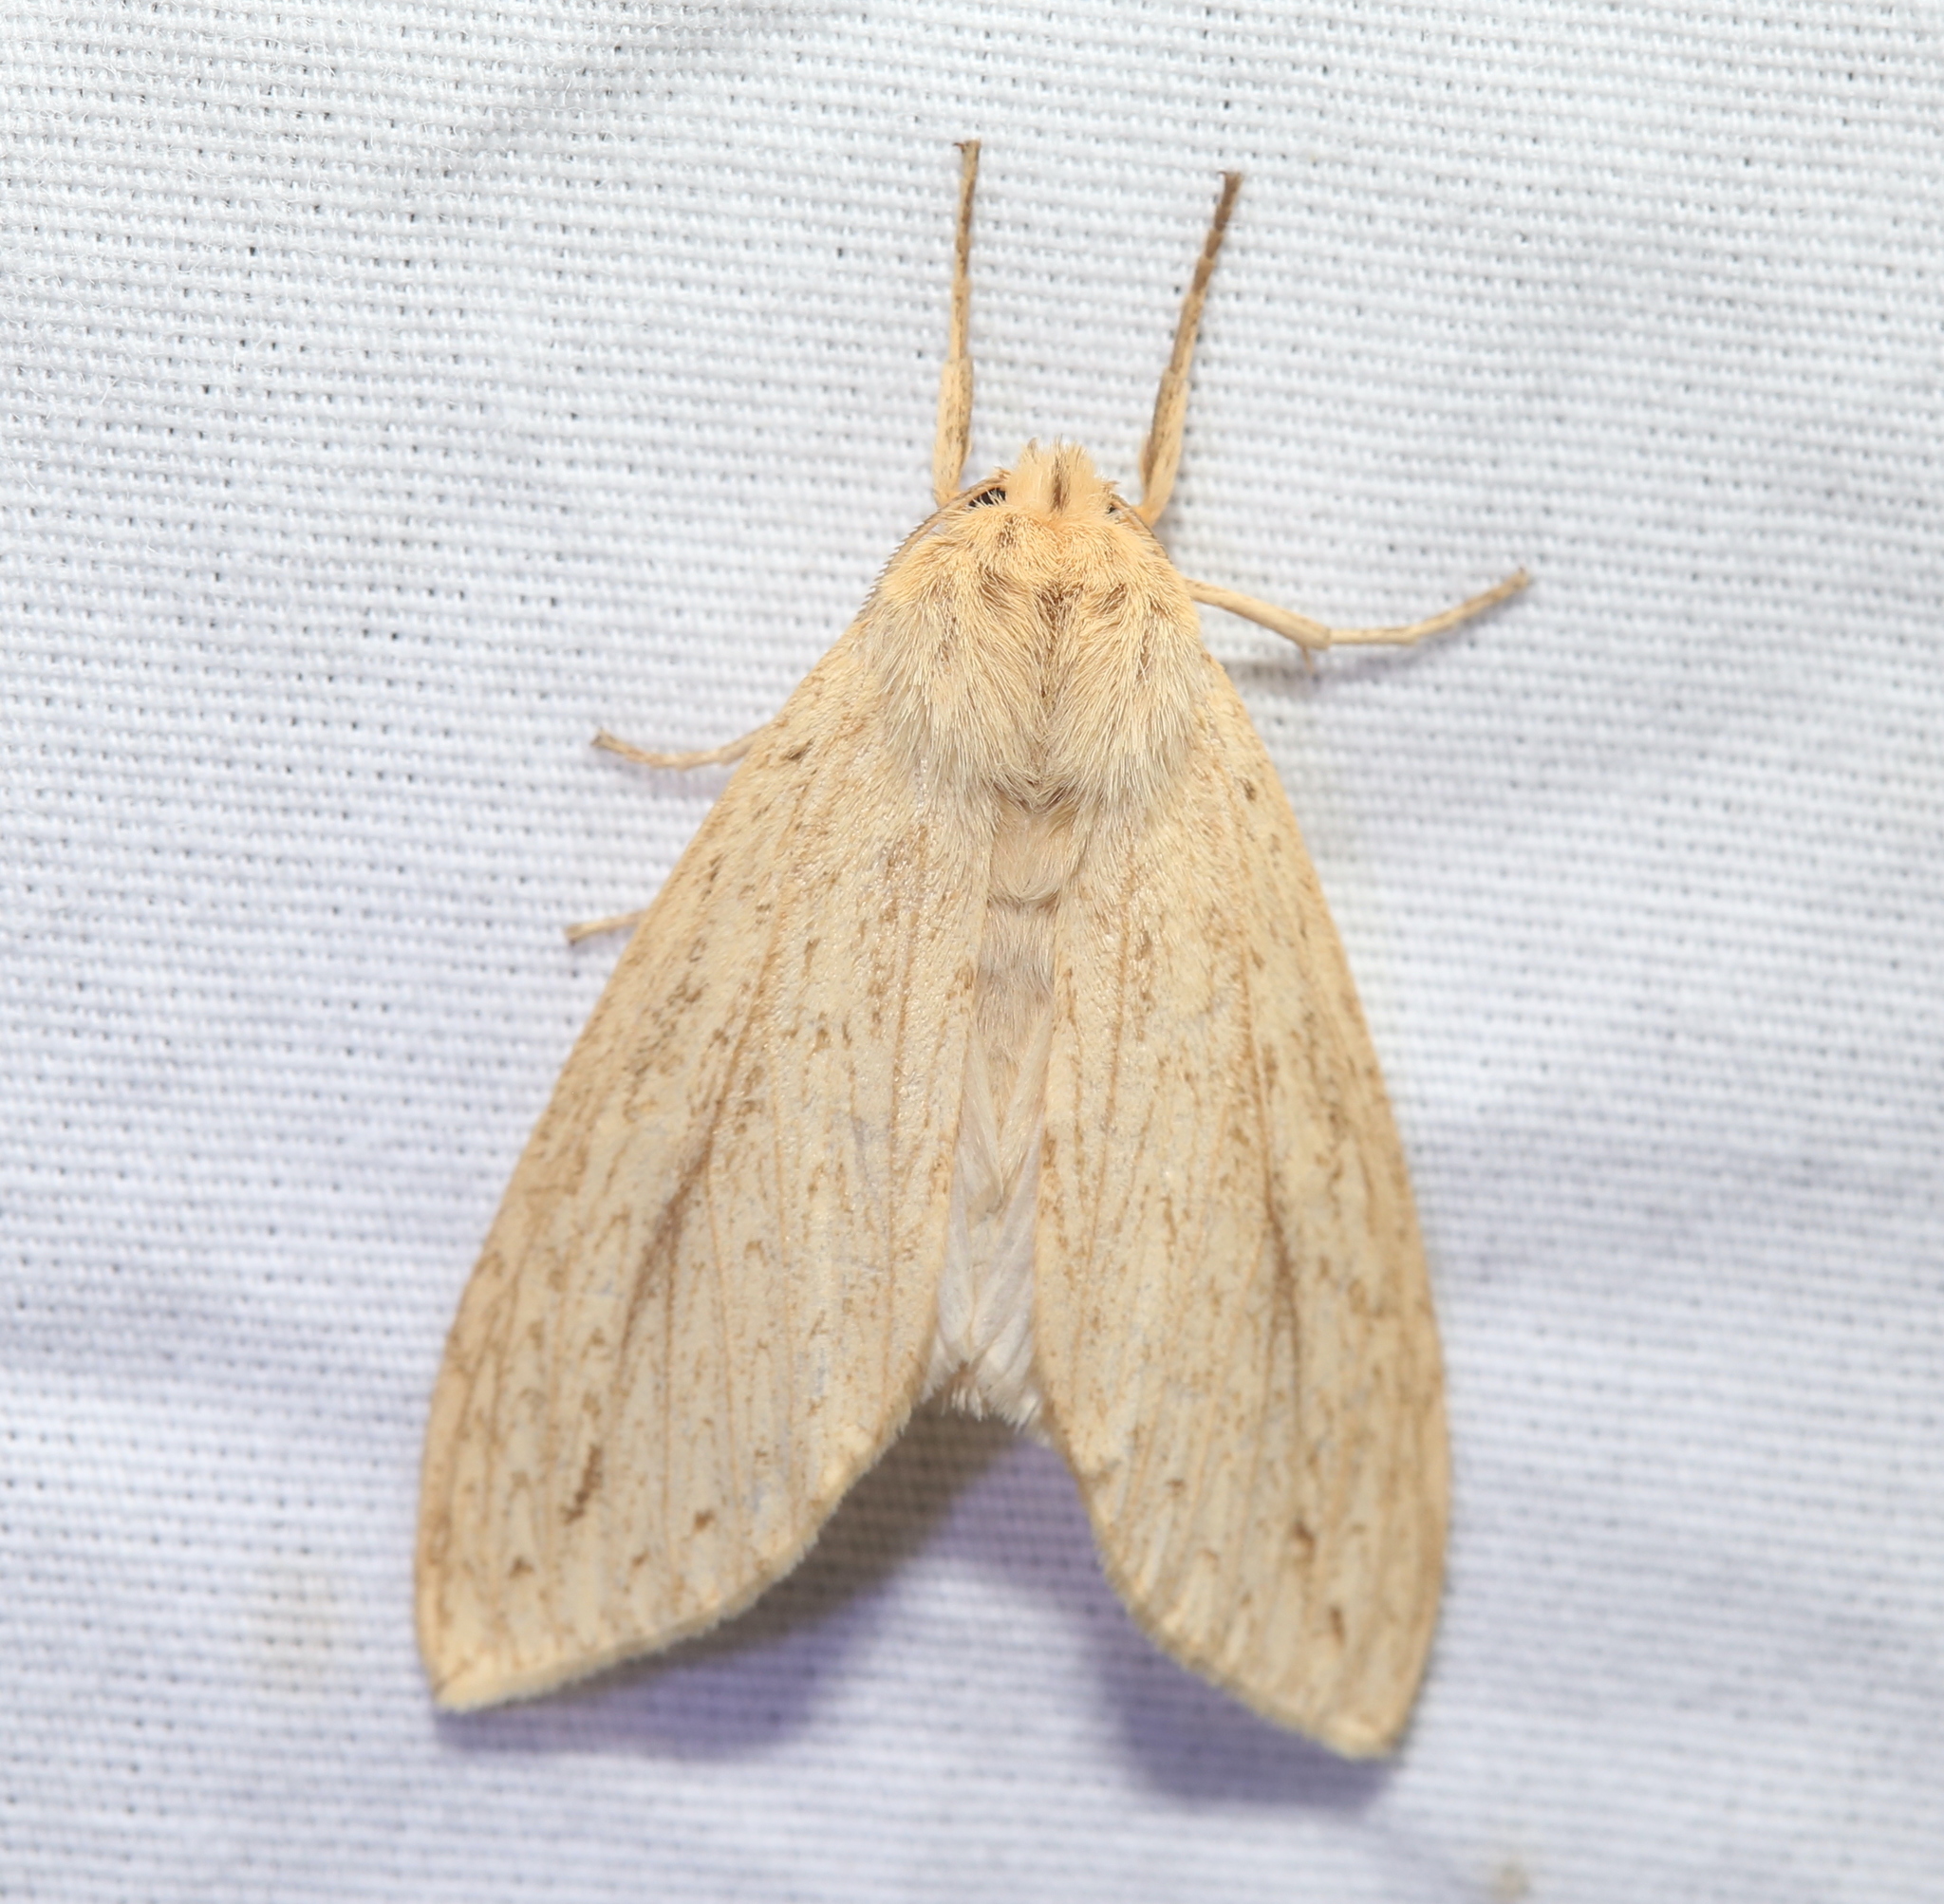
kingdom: Animalia
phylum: Arthropoda
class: Insecta
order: Lepidoptera
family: Erebidae
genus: Leucanopsis
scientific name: Leucanopsis longa
